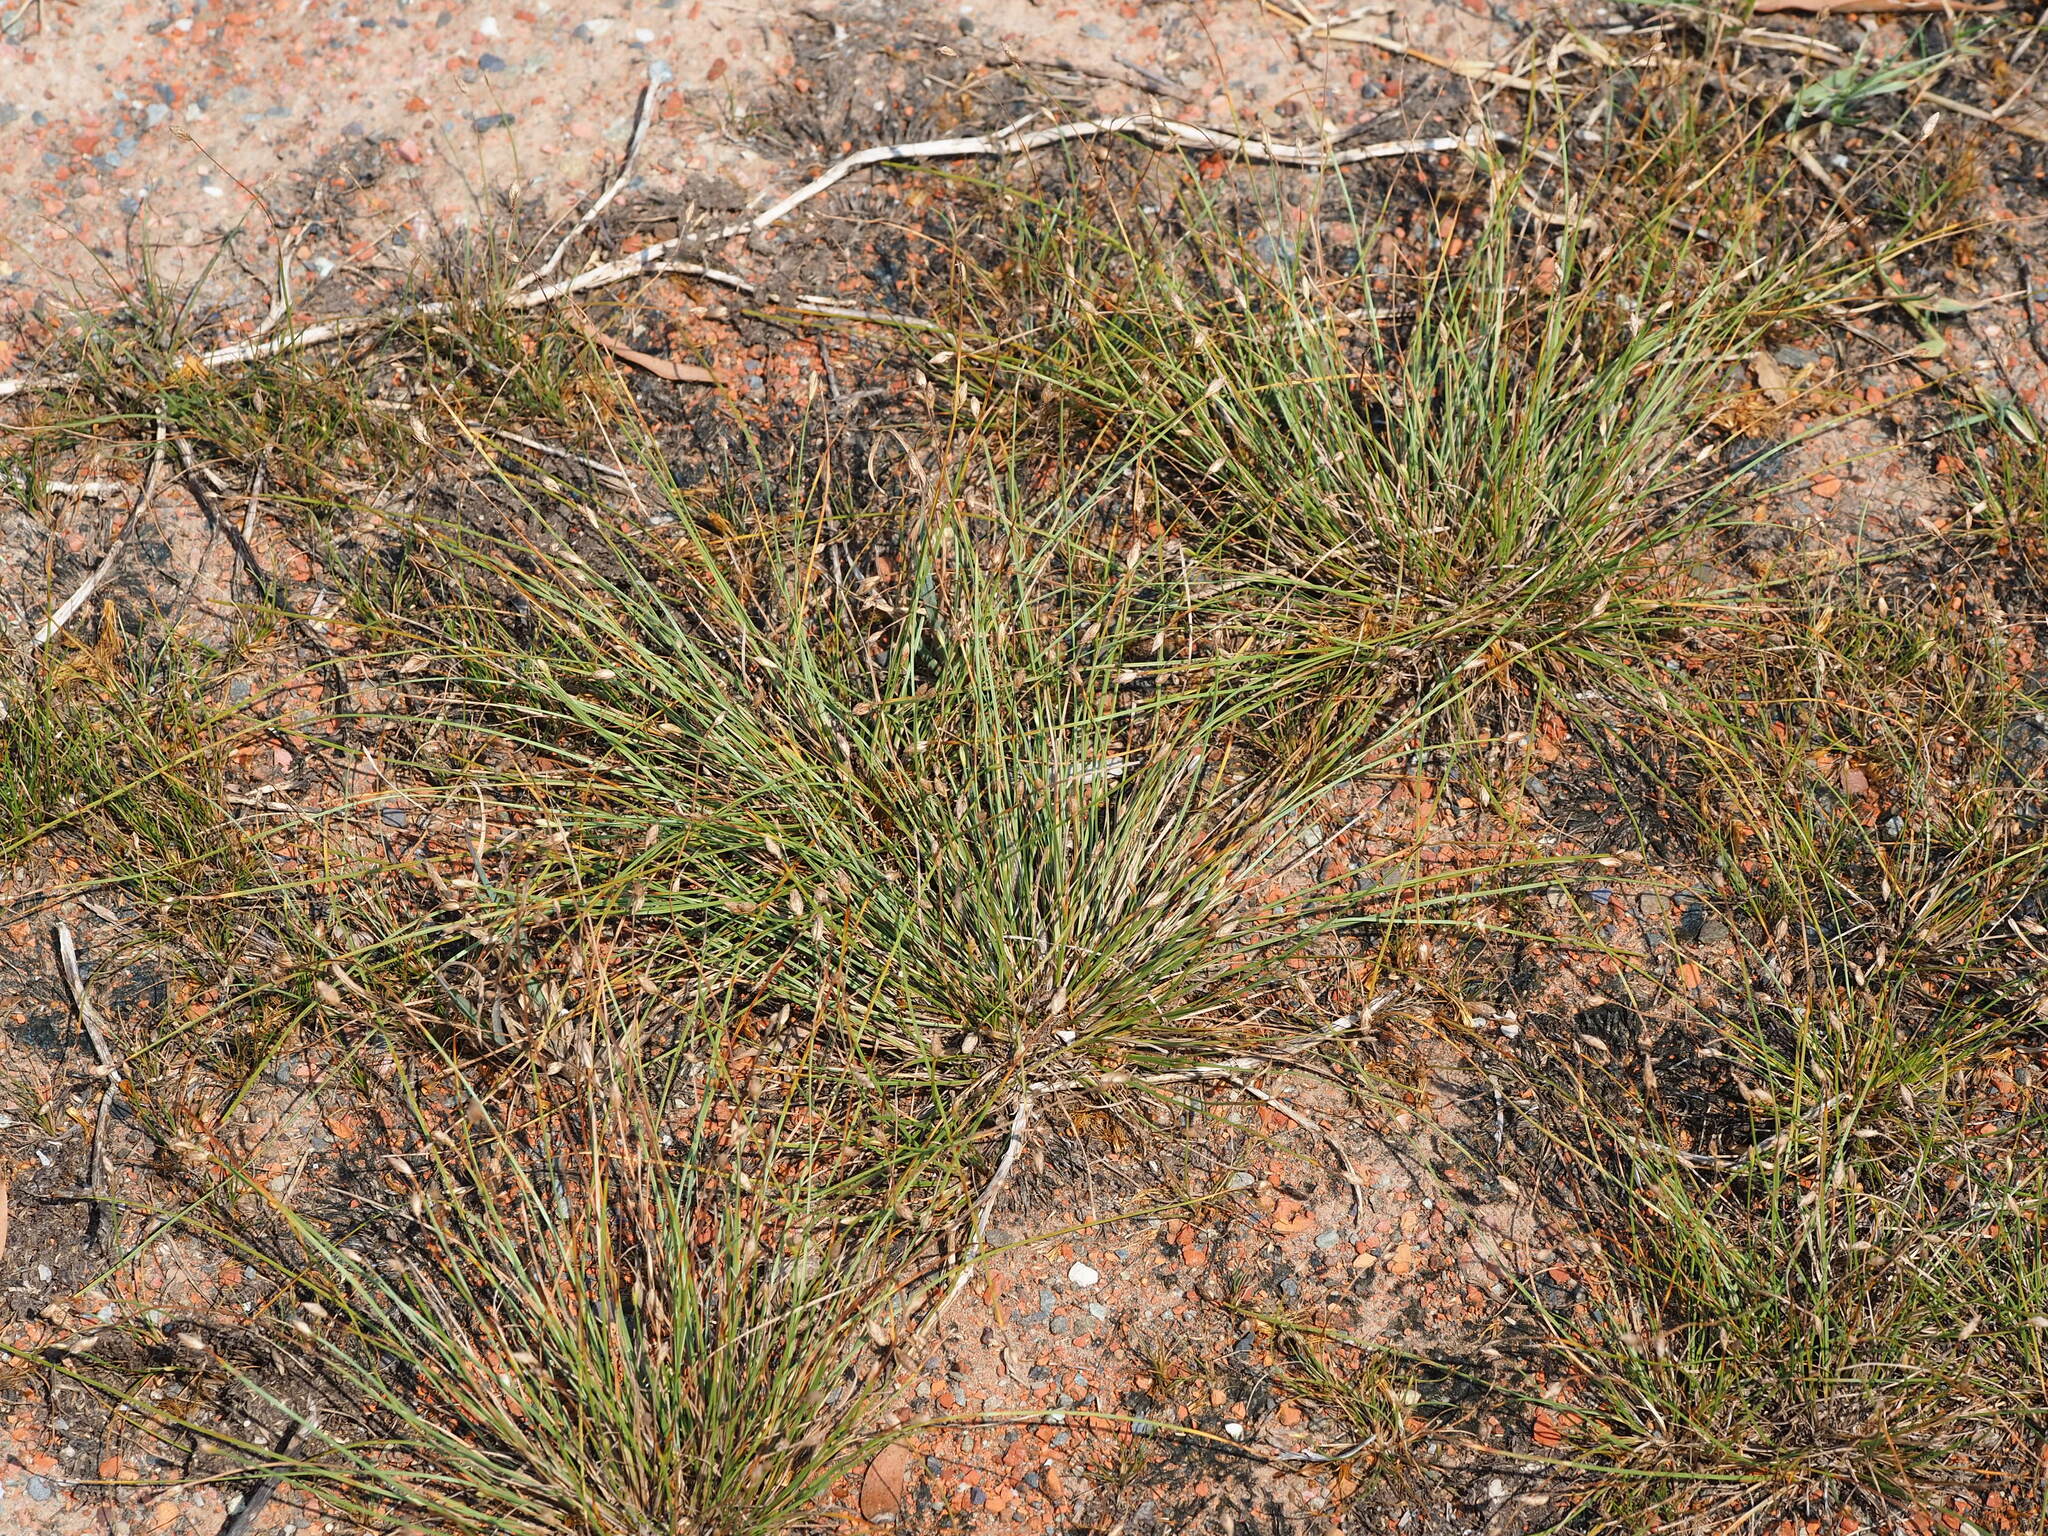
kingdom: Plantae
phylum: Tracheophyta
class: Liliopsida
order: Poales
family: Cyperaceae
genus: Fimbristylis
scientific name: Fimbristylis polytrichoides
